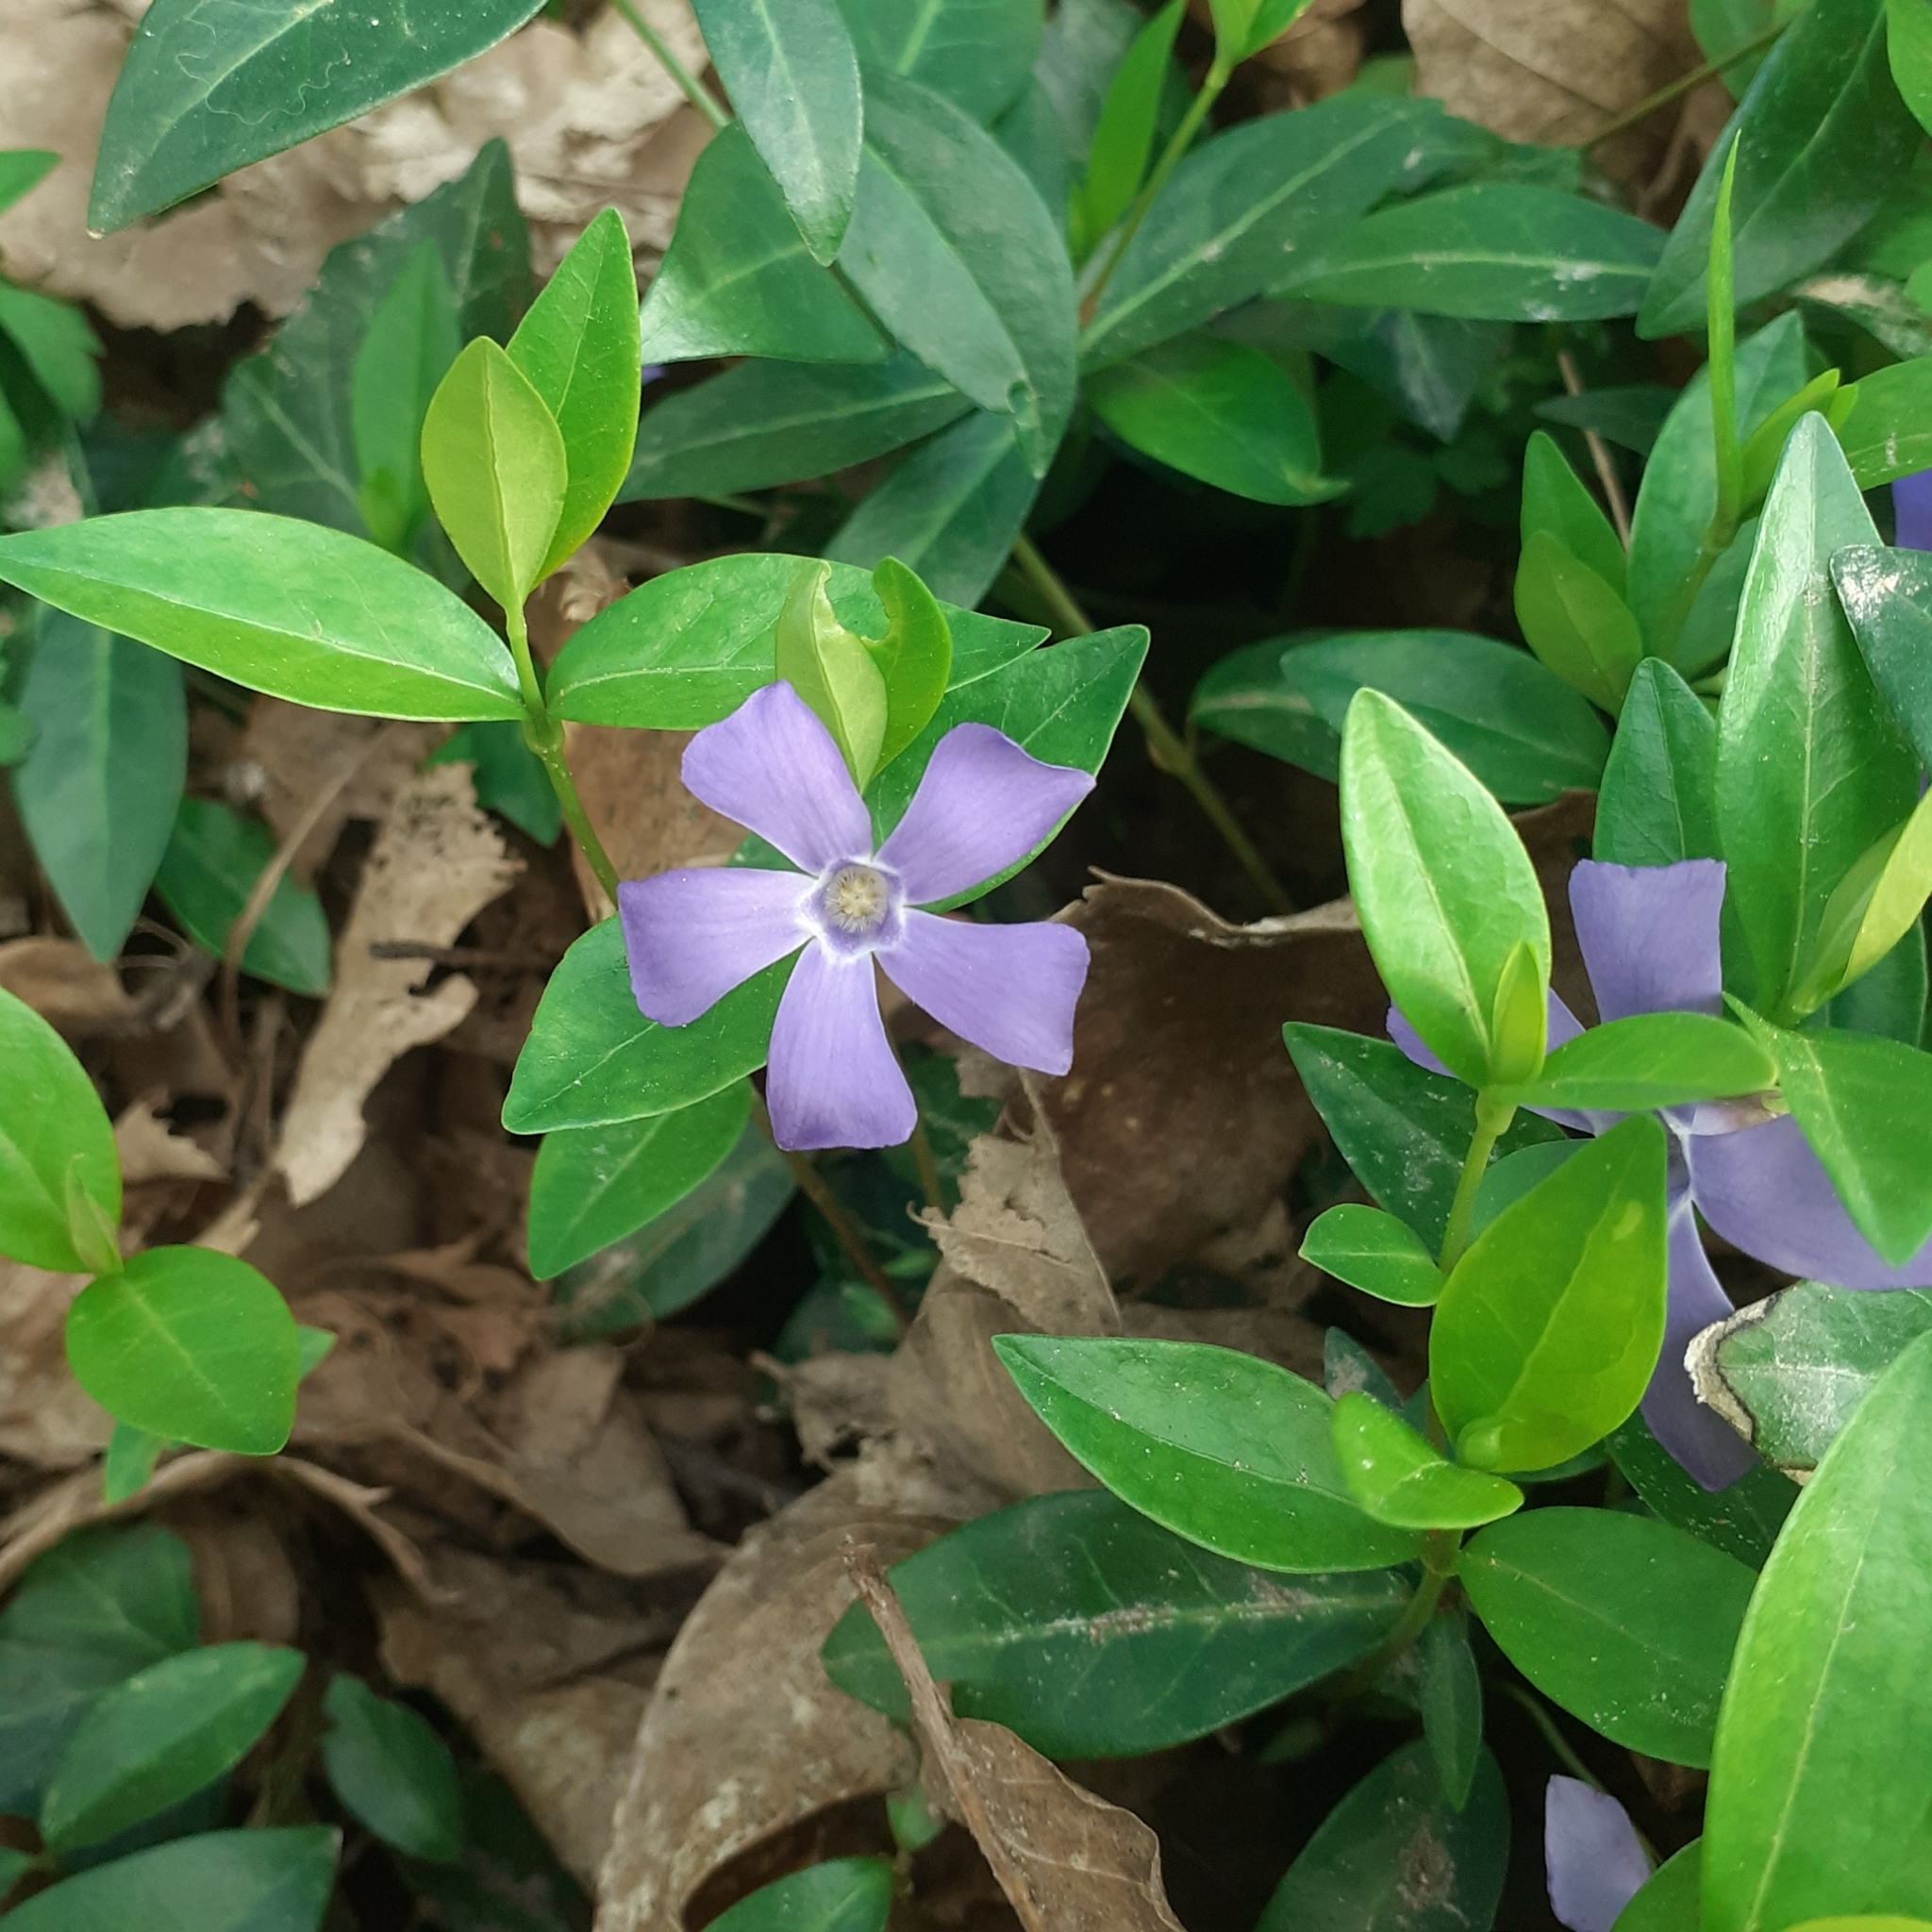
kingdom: Plantae
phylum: Tracheophyta
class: Magnoliopsida
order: Gentianales
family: Apocynaceae
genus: Vinca
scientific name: Vinca minor
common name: Lesser periwinkle
